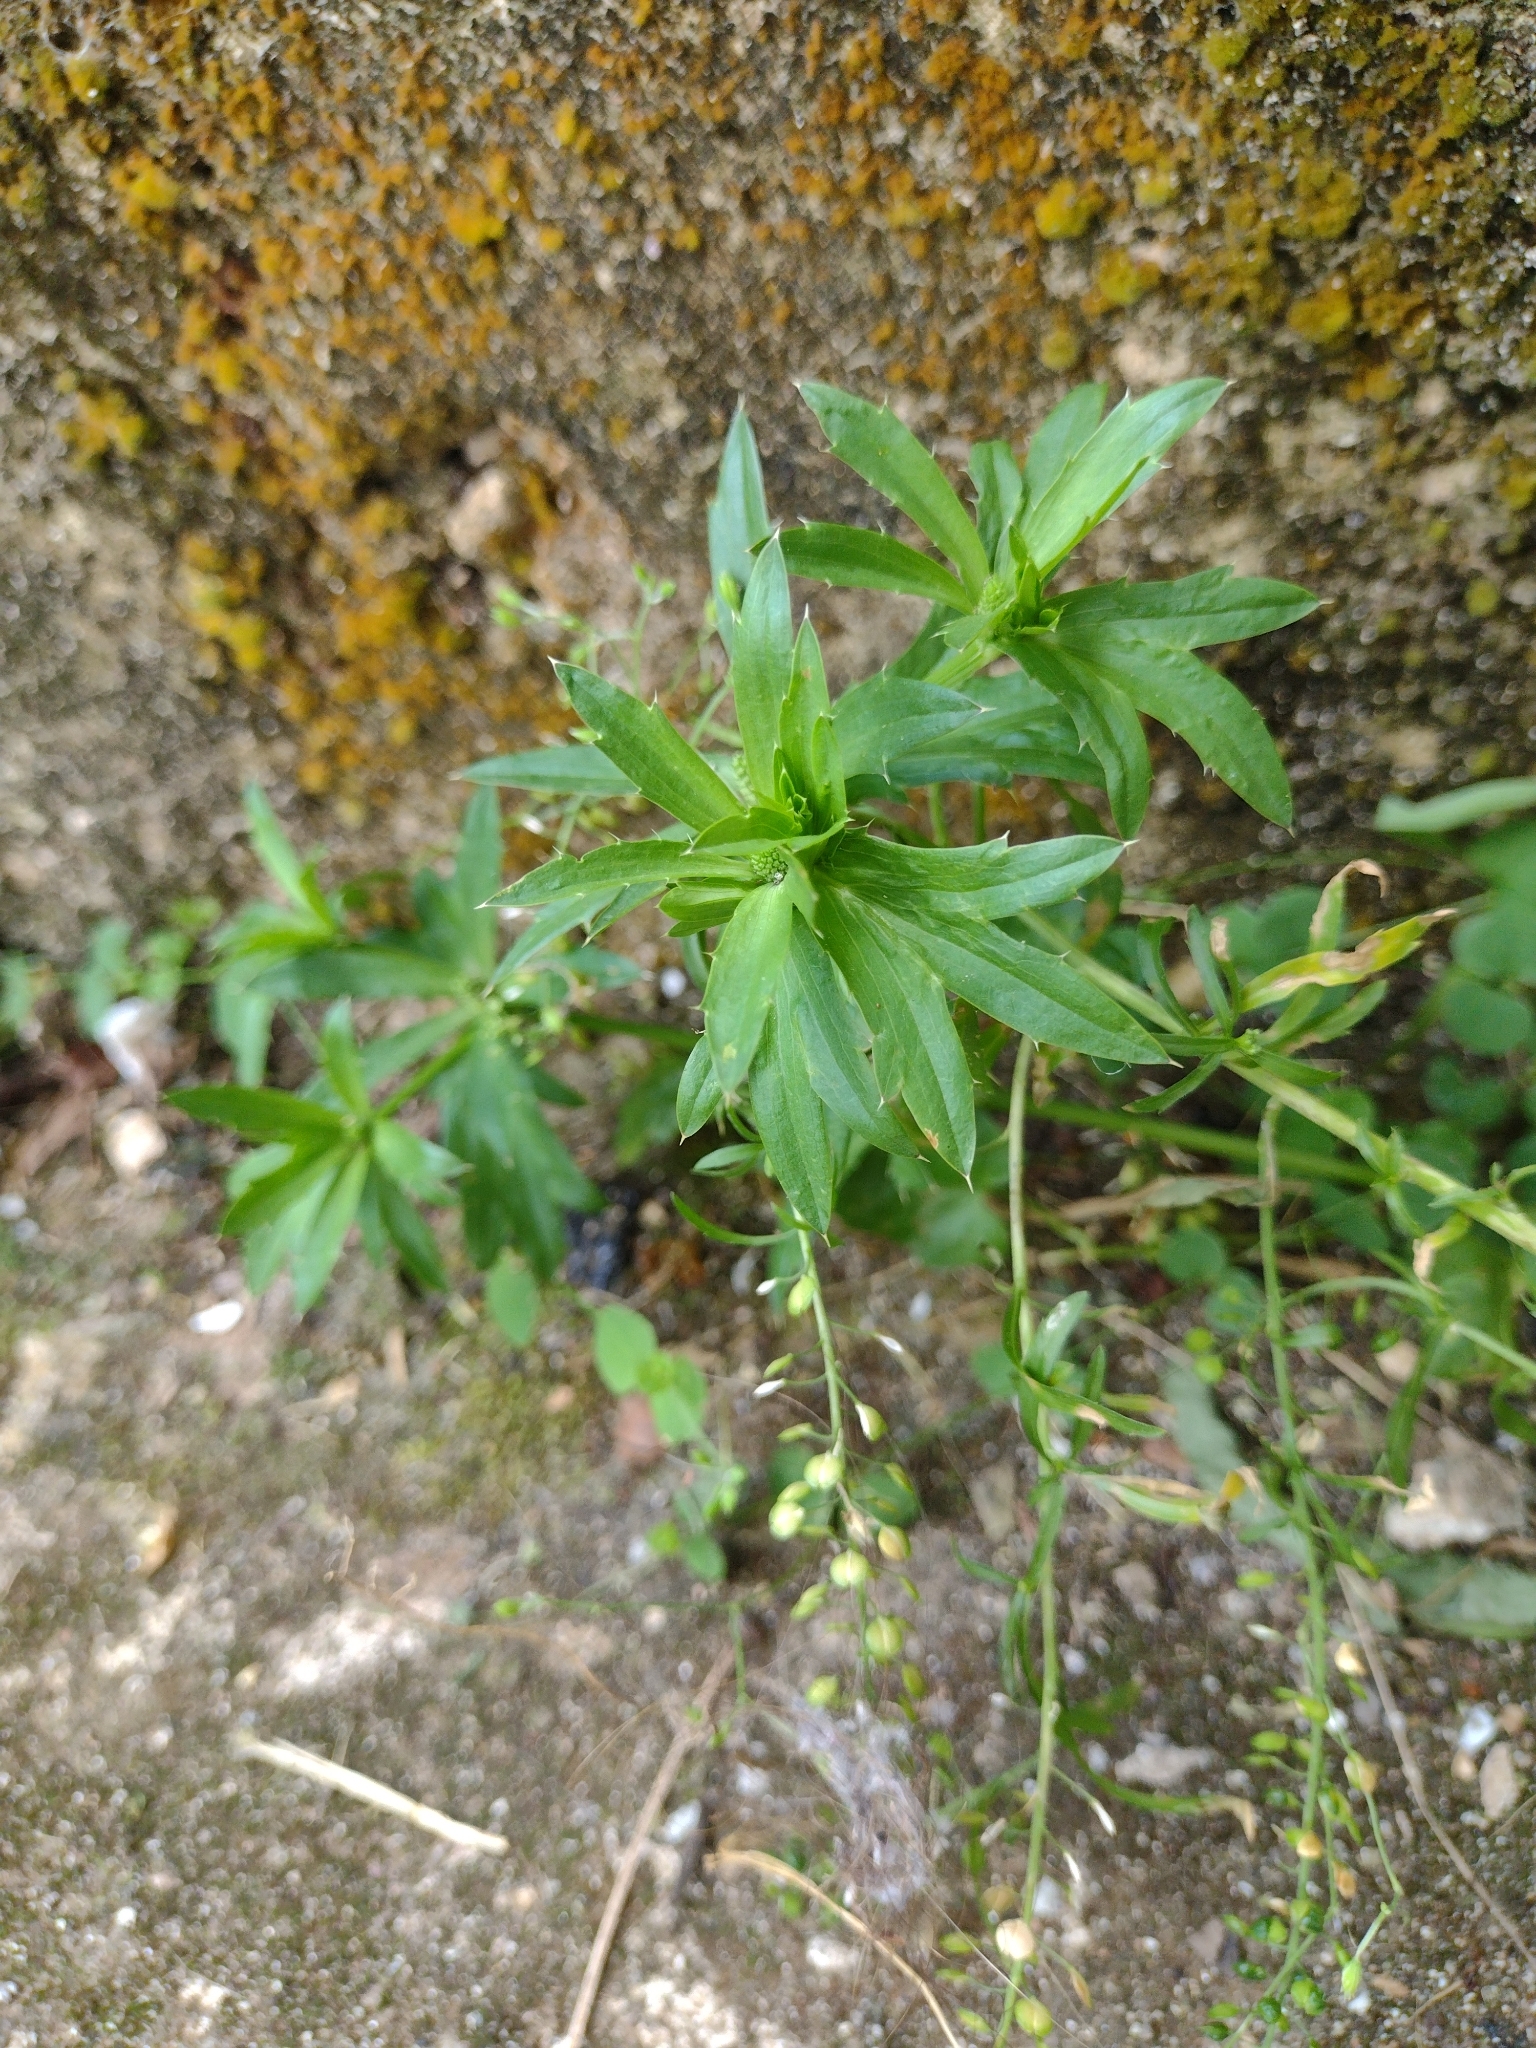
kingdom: Plantae
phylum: Tracheophyta
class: Magnoliopsida
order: Apiales
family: Apiaceae
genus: Eryngium
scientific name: Eryngium foetidum
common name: Fitweed
